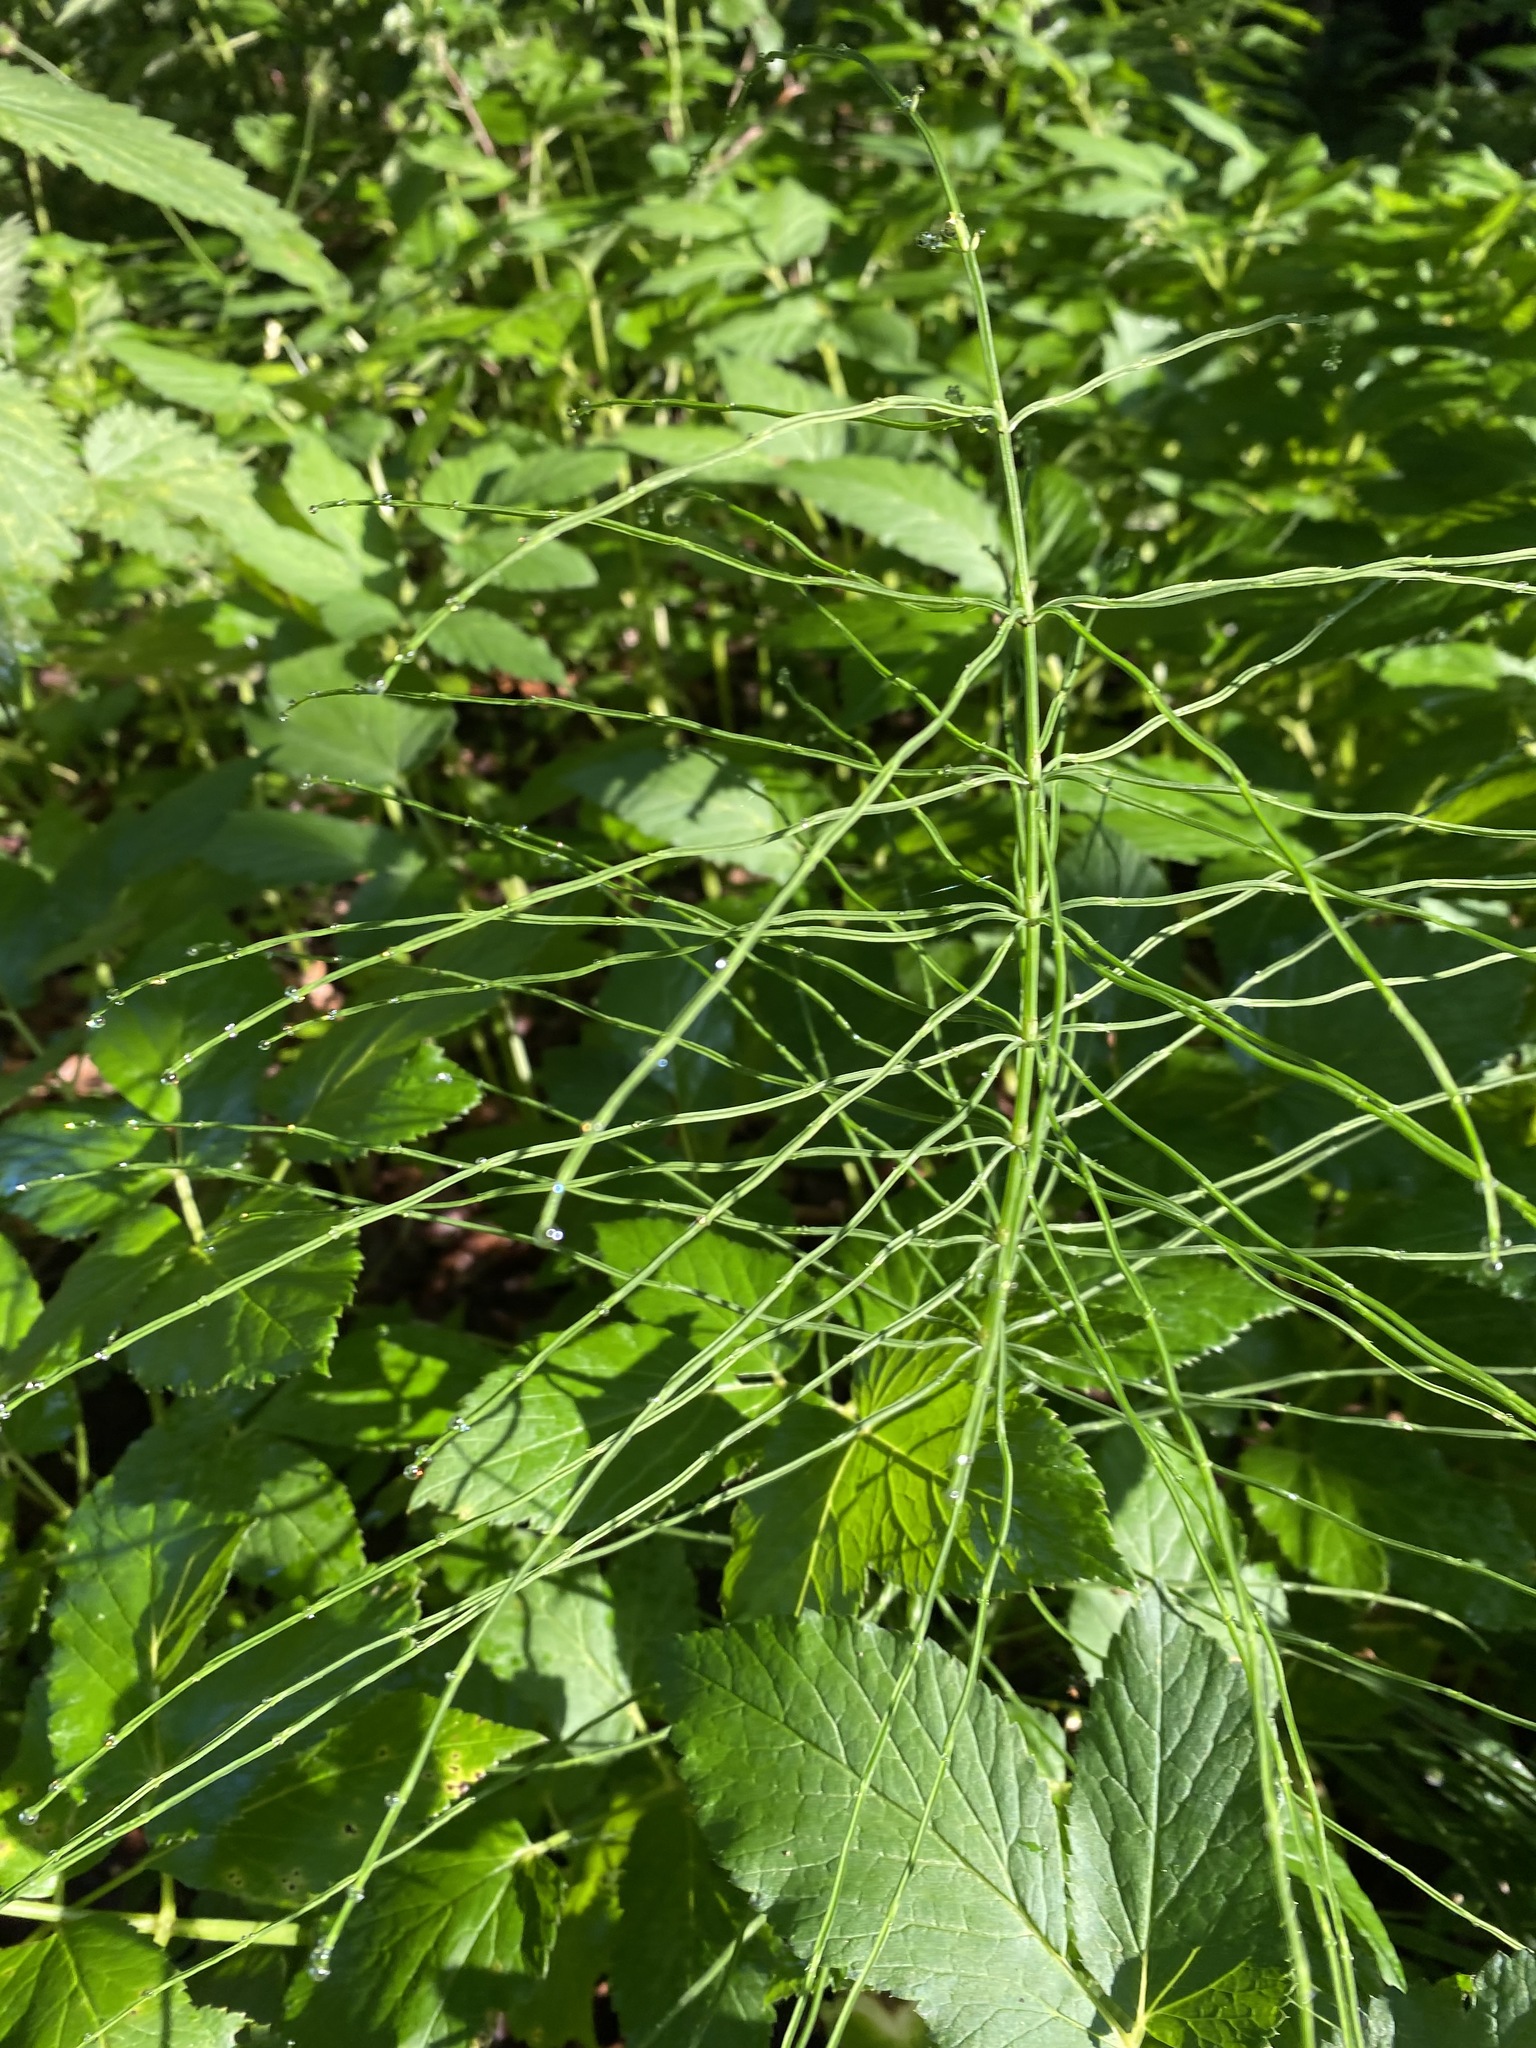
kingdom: Plantae
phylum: Tracheophyta
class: Polypodiopsida
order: Equisetales
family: Equisetaceae
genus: Equisetum
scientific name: Equisetum arvense
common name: Field horsetail
